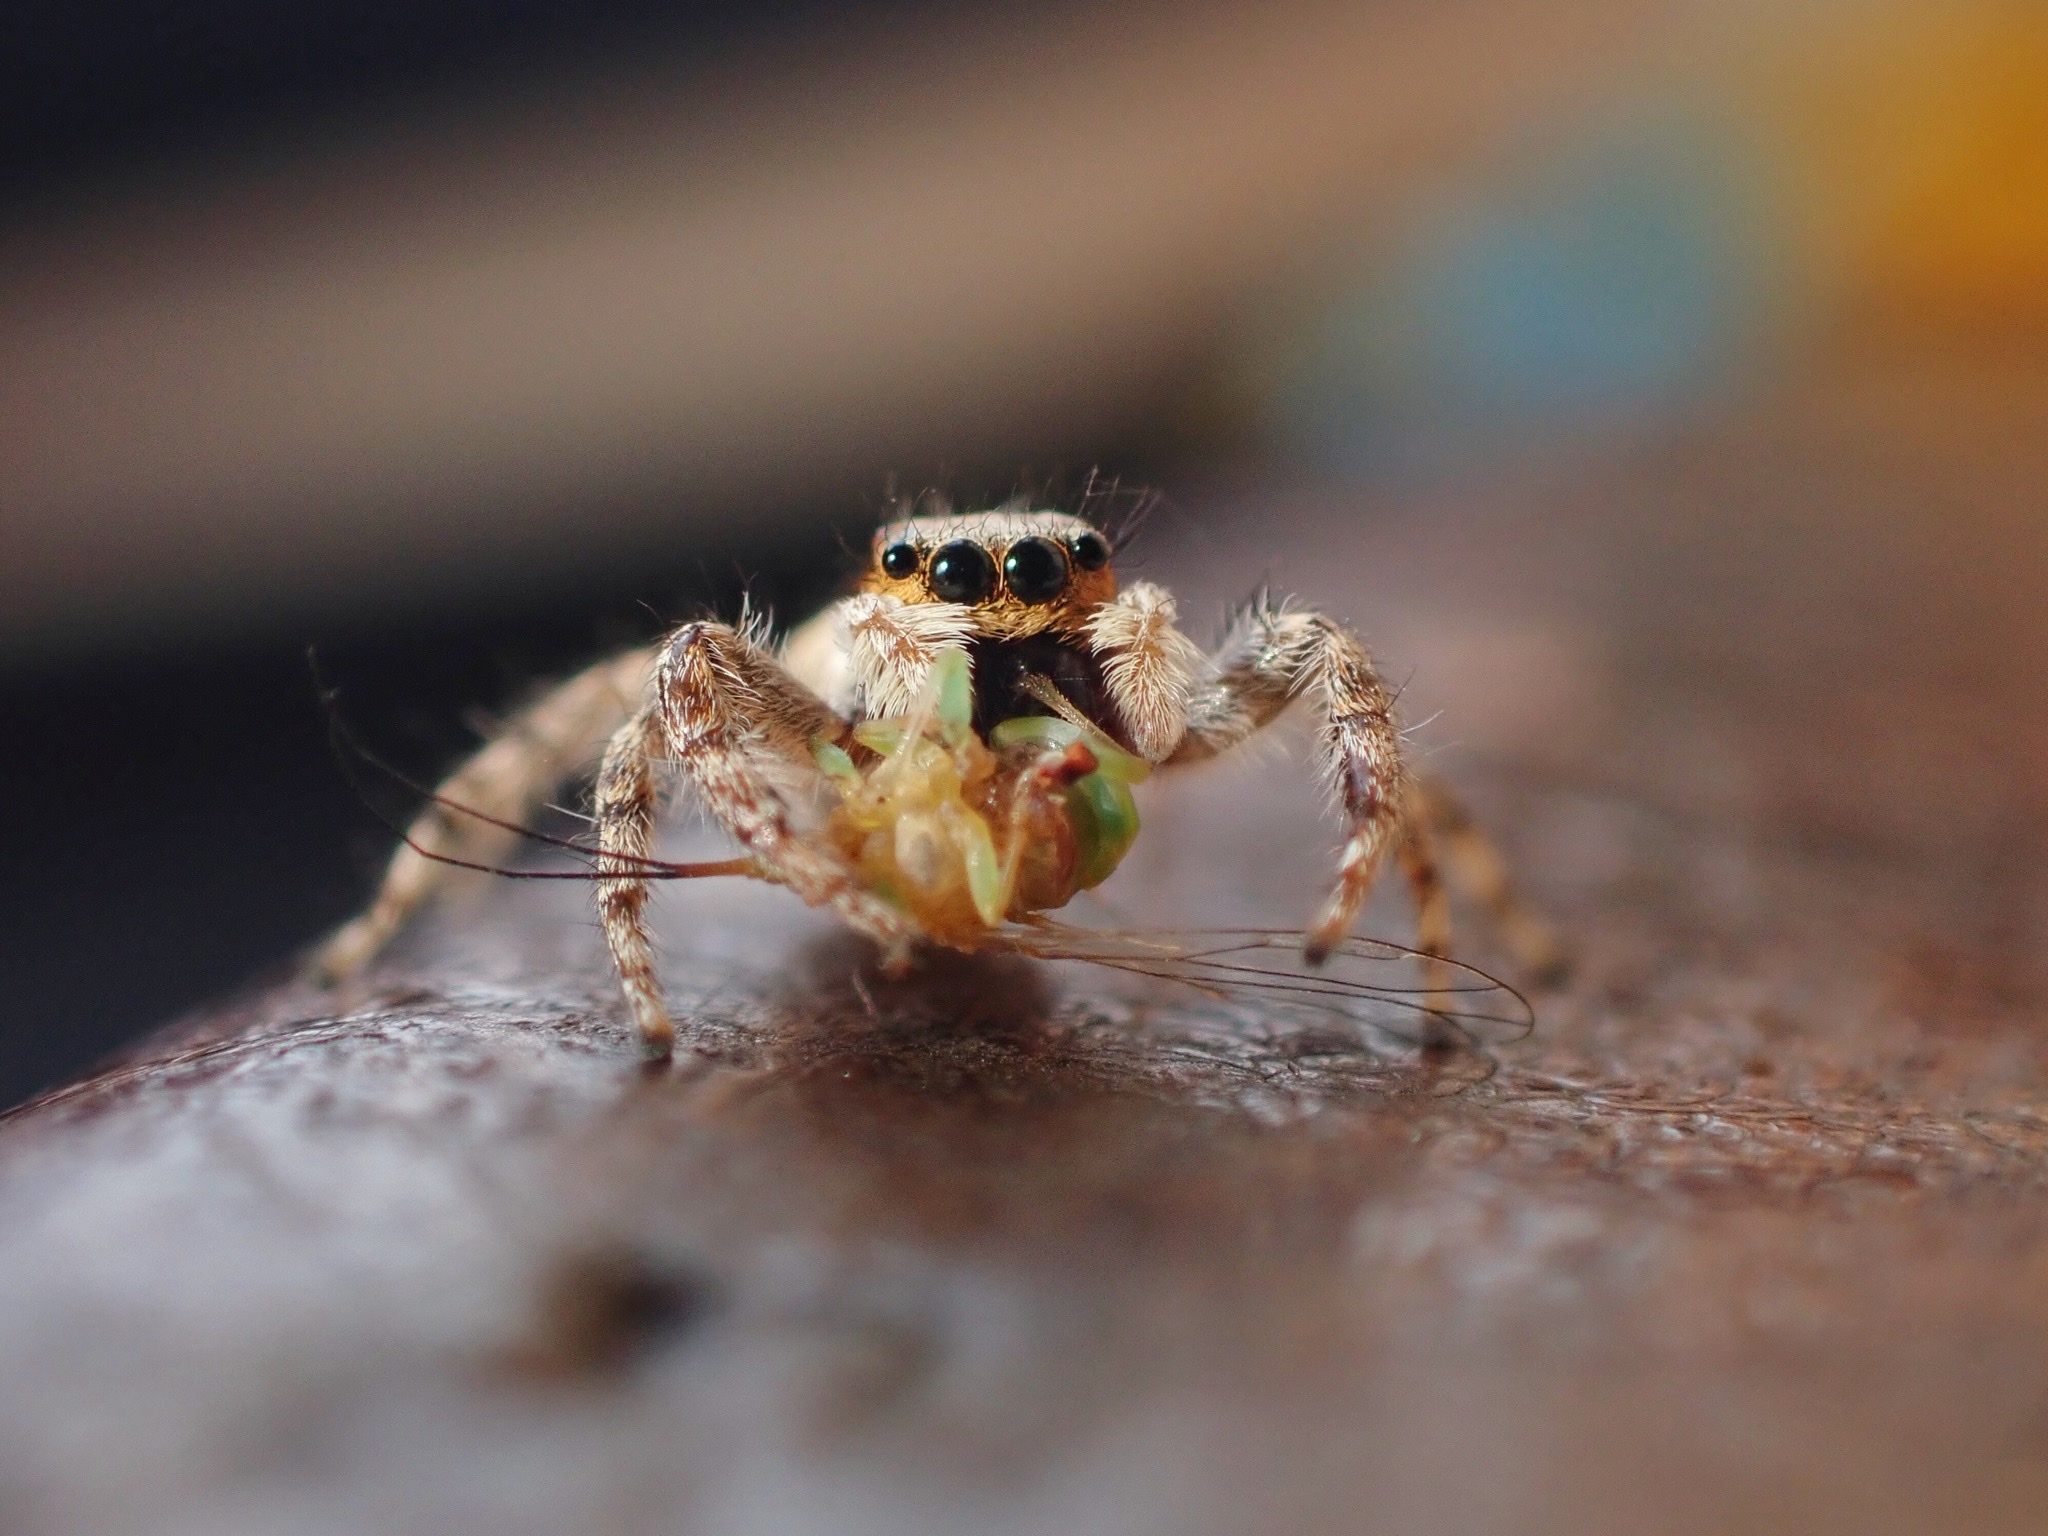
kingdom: Animalia
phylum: Arthropoda
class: Arachnida
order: Araneae
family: Salticidae
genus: Menemerus
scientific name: Menemerus bivittatus
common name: Gray wall jumper
